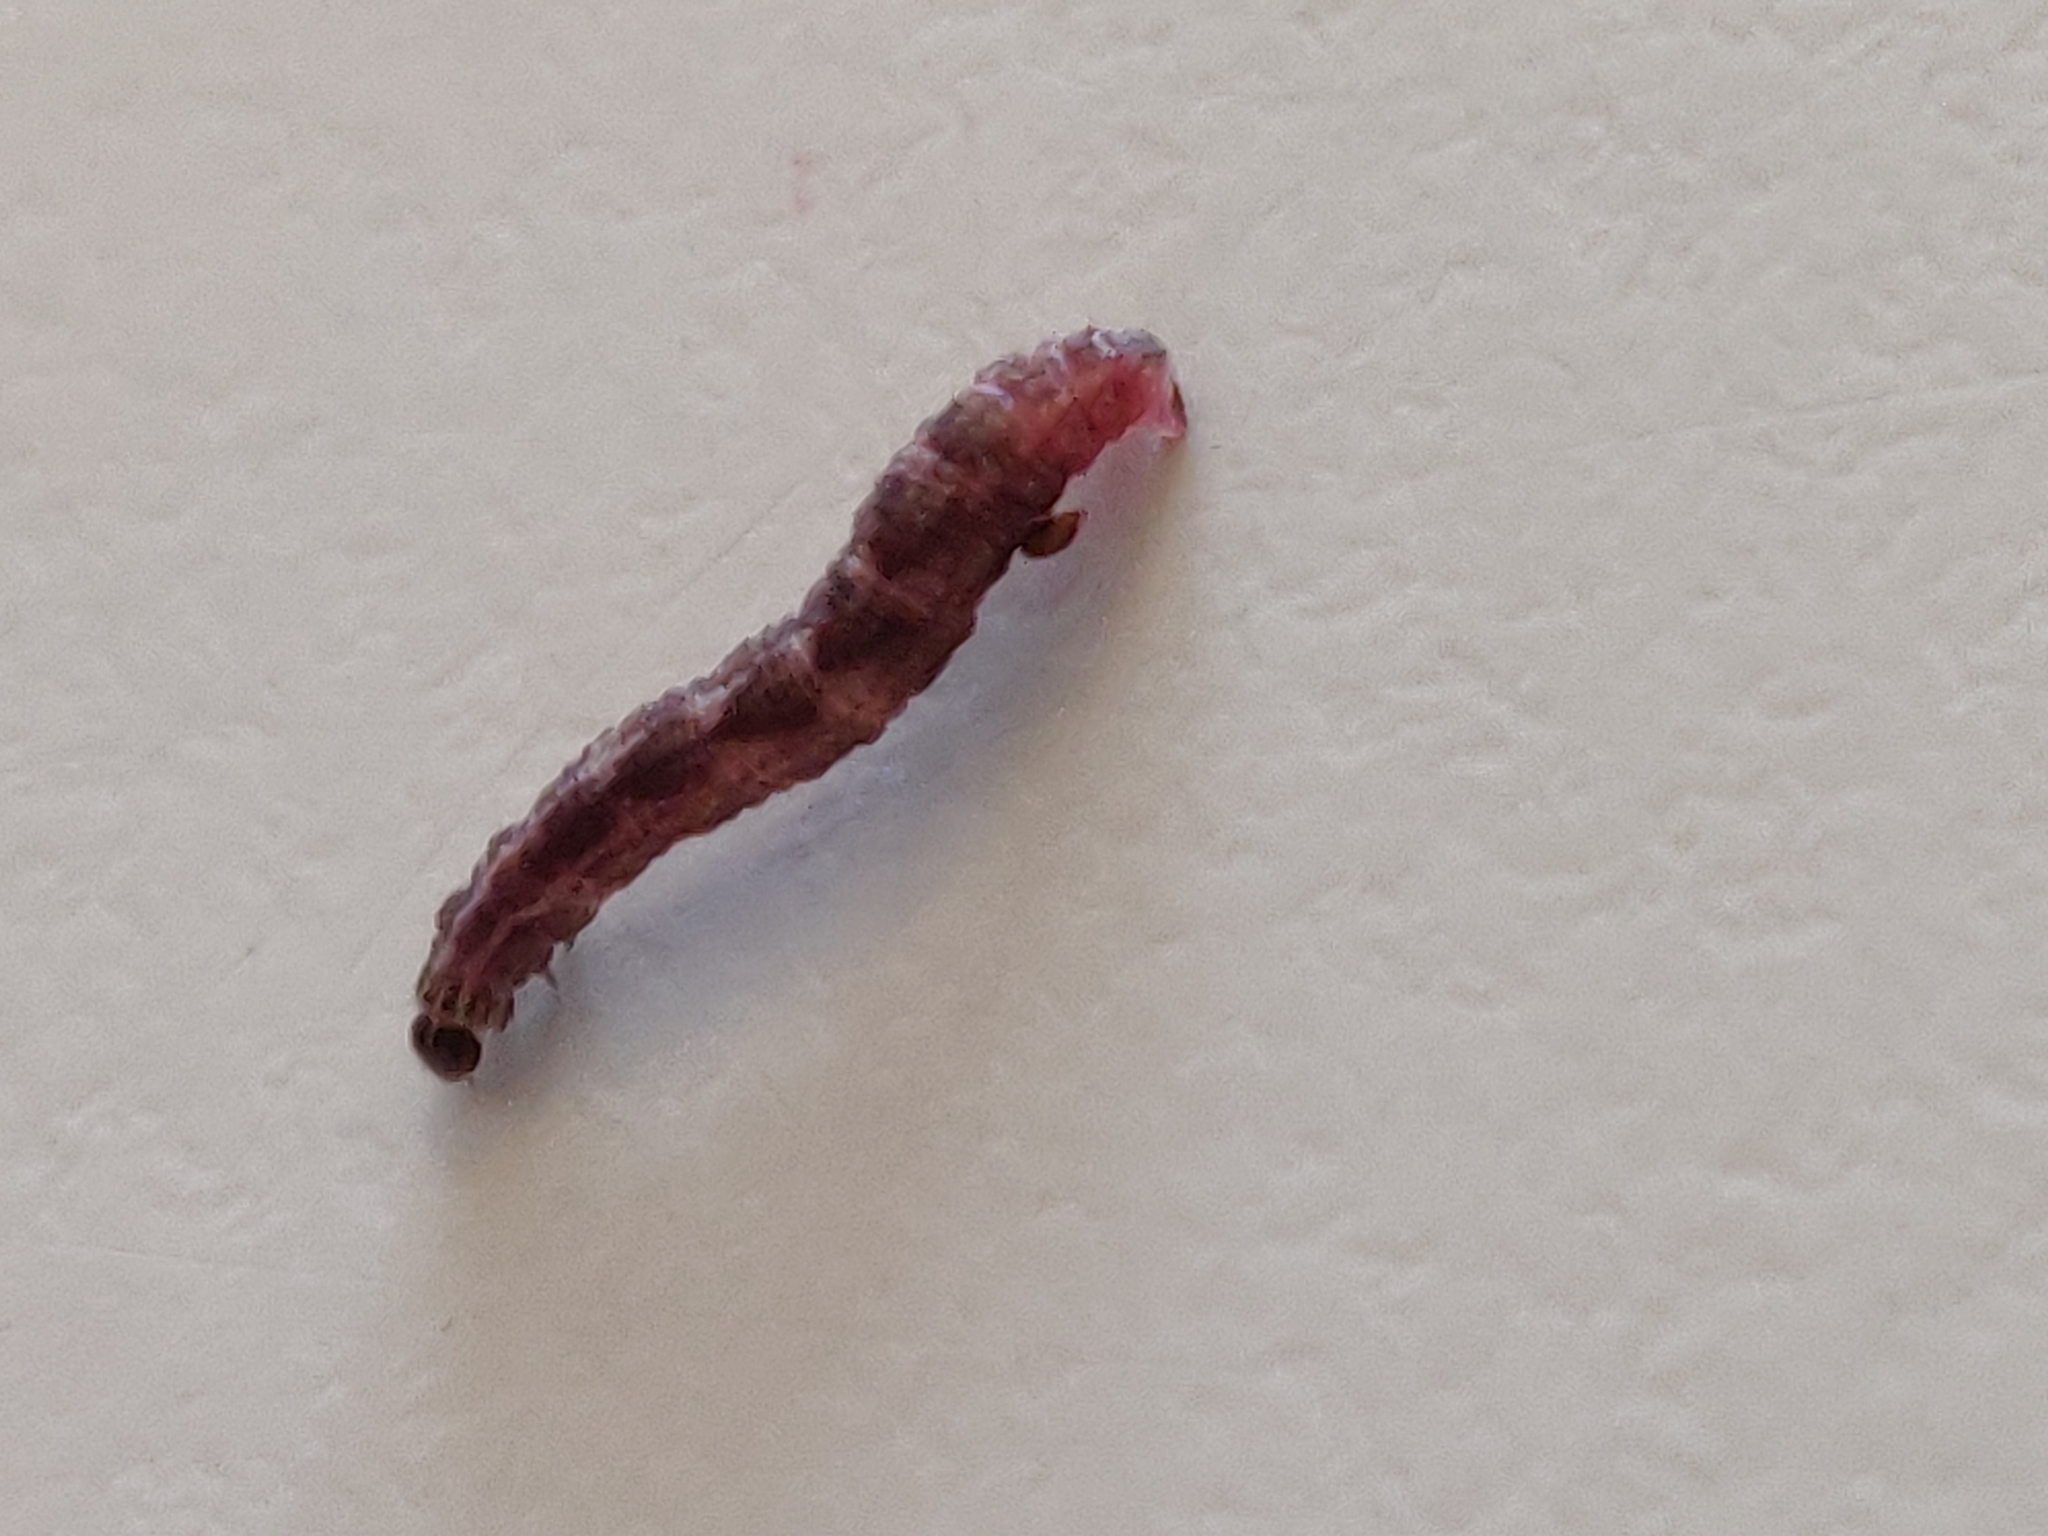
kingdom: Animalia
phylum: Arthropoda
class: Insecta
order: Lepidoptera
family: Geometridae
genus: Gymnoscelis
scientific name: Gymnoscelis rufifasciata
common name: Double-striped pug
